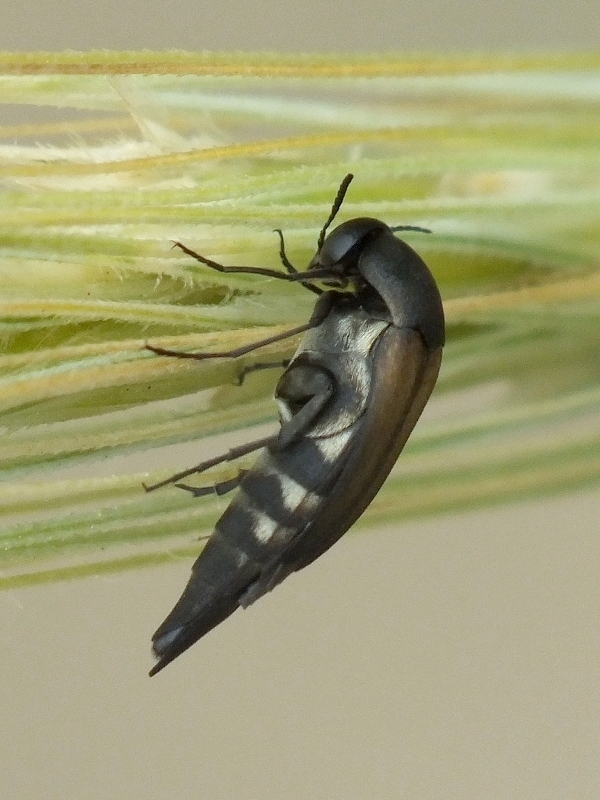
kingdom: Animalia
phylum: Arthropoda
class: Insecta
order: Coleoptera
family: Mordellidae
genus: Stenalia
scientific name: Stenalia araxicola
